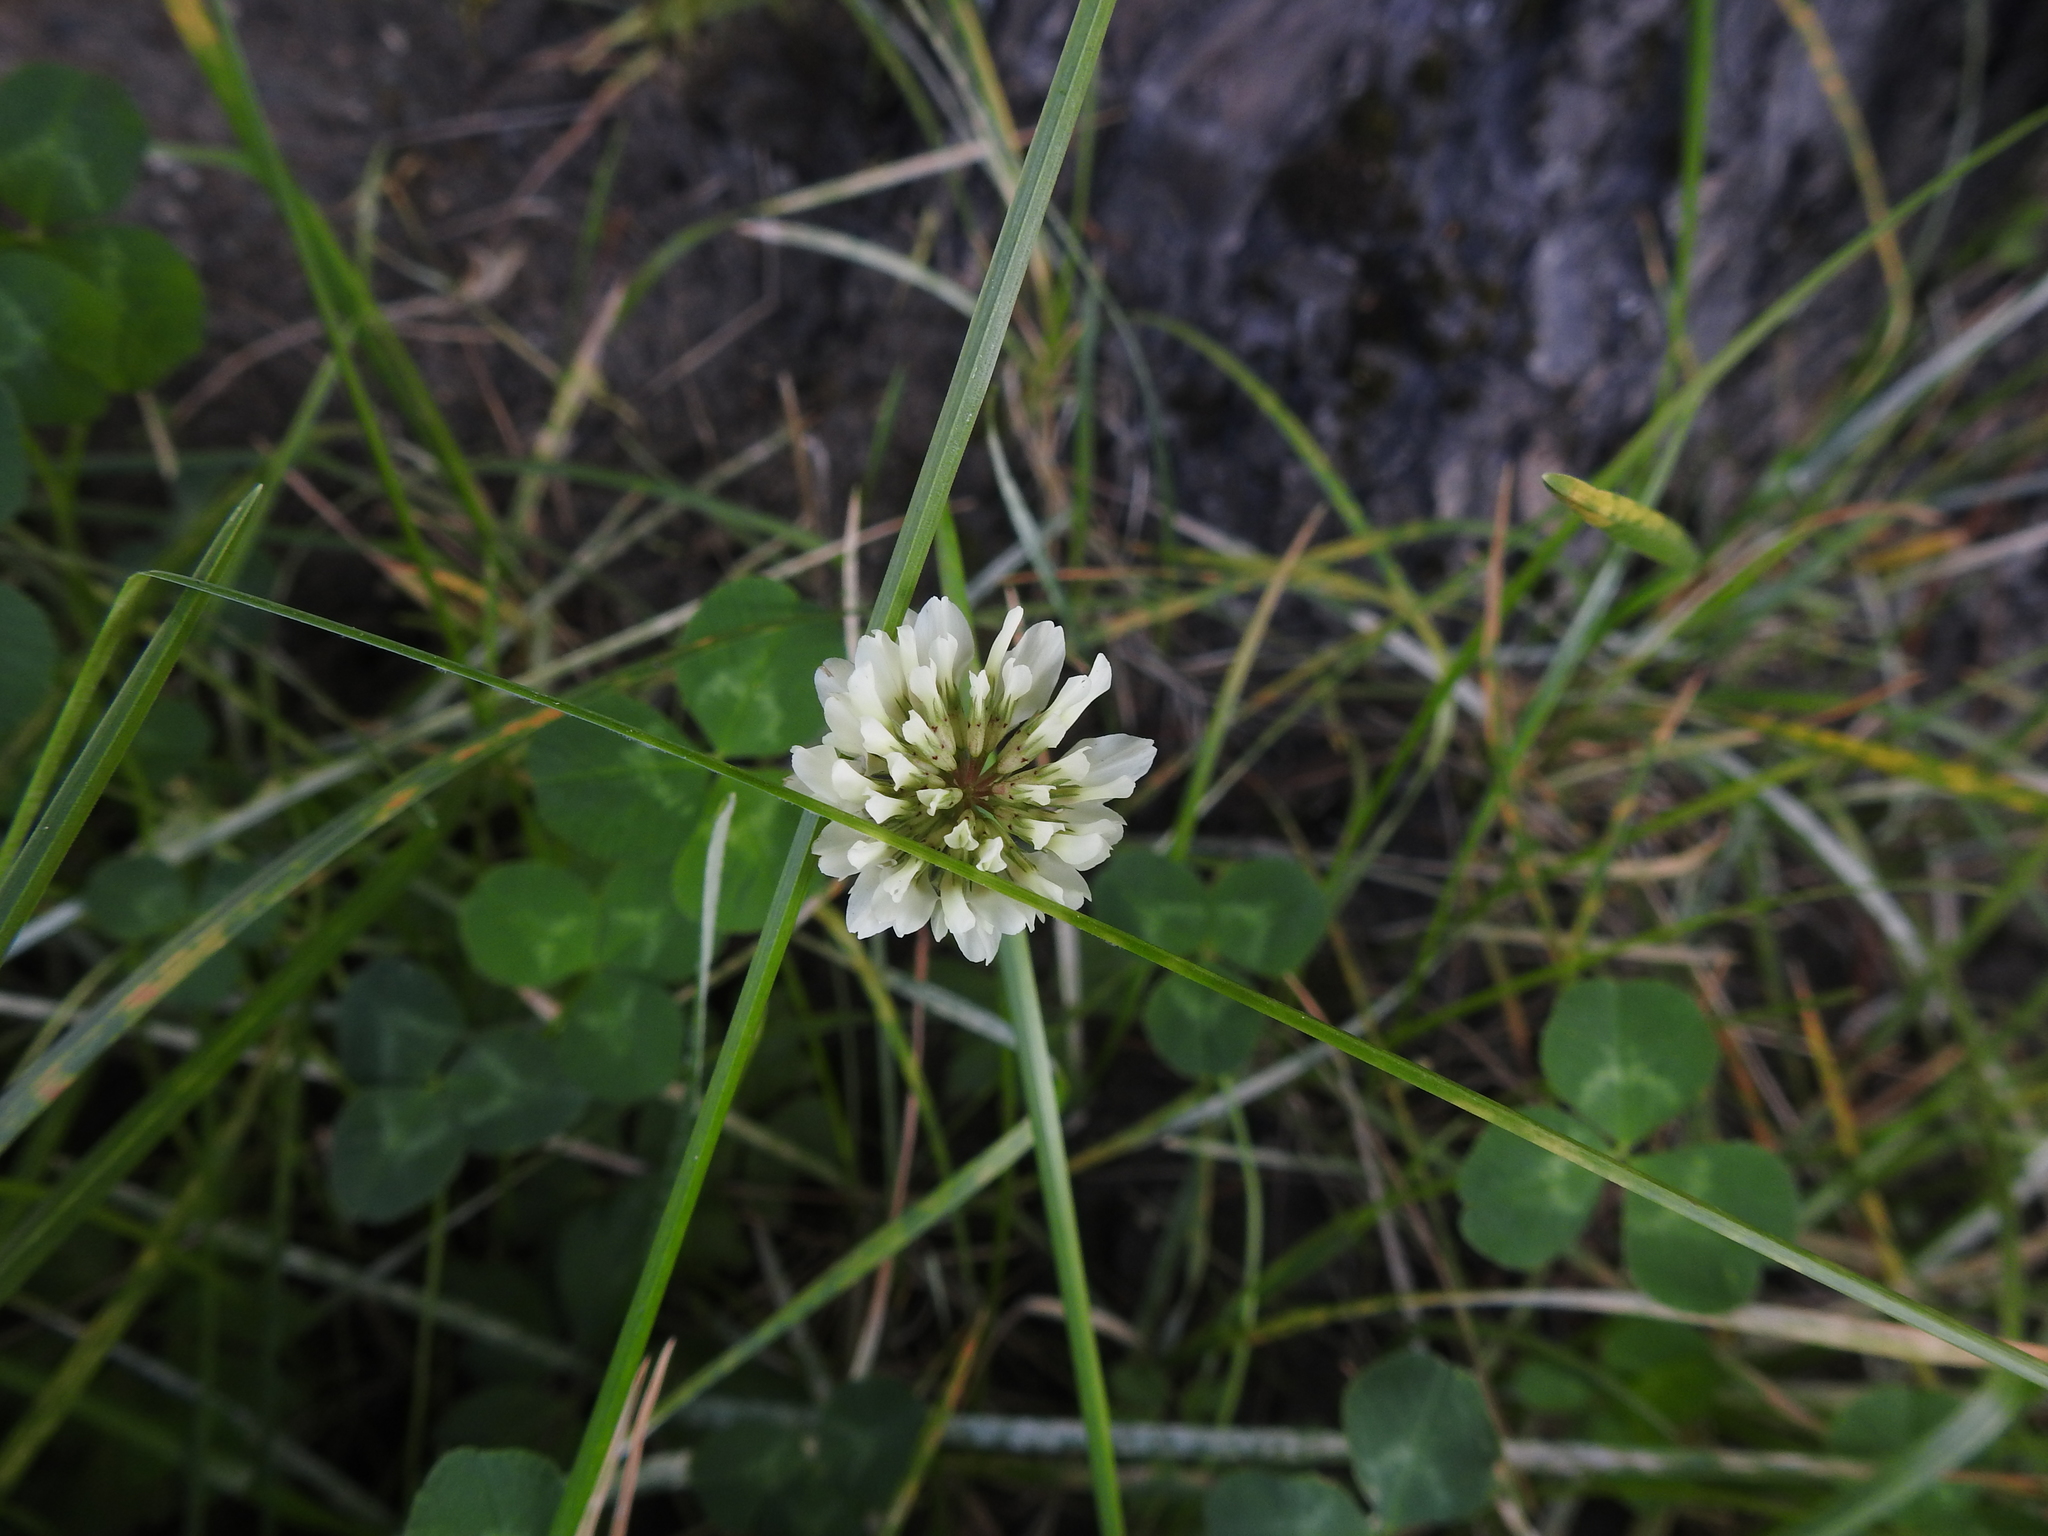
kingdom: Plantae
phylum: Tracheophyta
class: Magnoliopsida
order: Fabales
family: Fabaceae
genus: Trifolium
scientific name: Trifolium repens
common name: White clover
